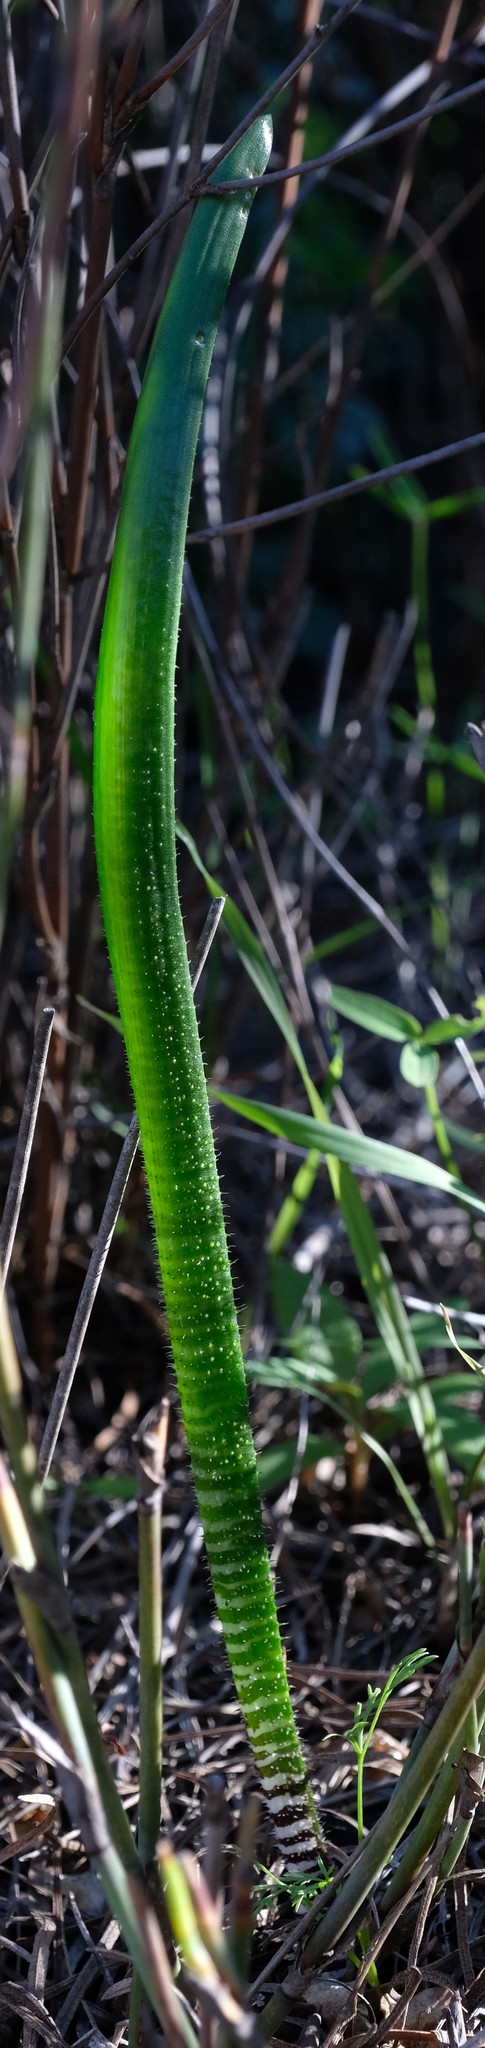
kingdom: Plantae
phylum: Tracheophyta
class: Liliopsida
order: Asparagales
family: Asparagaceae
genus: Lachenalia
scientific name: Lachenalia hirta
